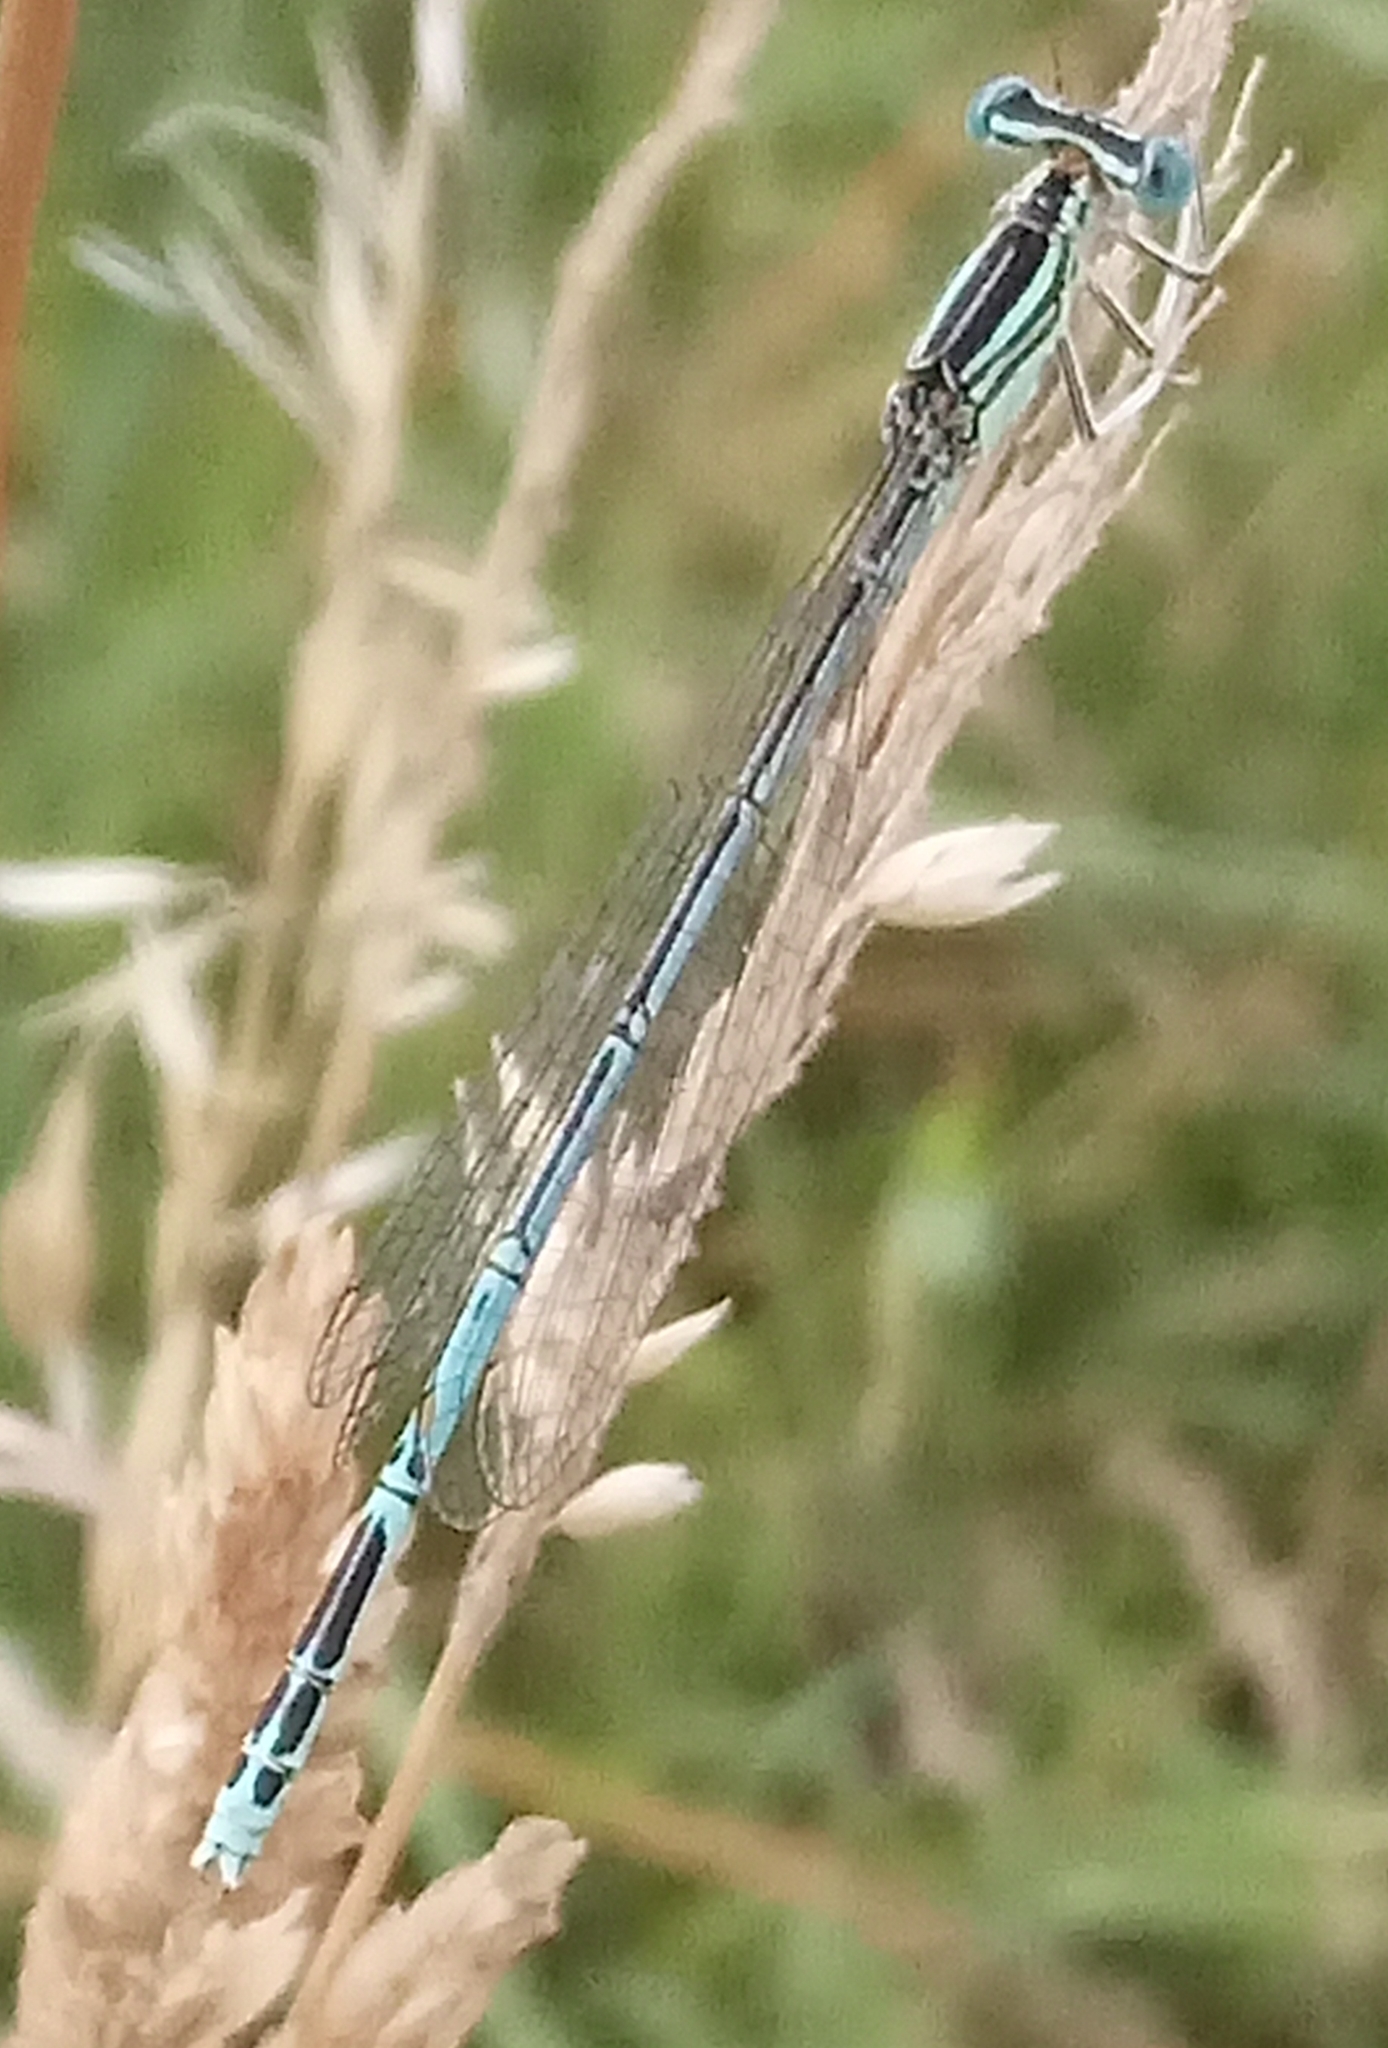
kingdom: Animalia
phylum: Arthropoda
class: Insecta
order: Odonata
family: Platycnemididae
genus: Platycnemis
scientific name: Platycnemis pennipes
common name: White-legged damselfly
